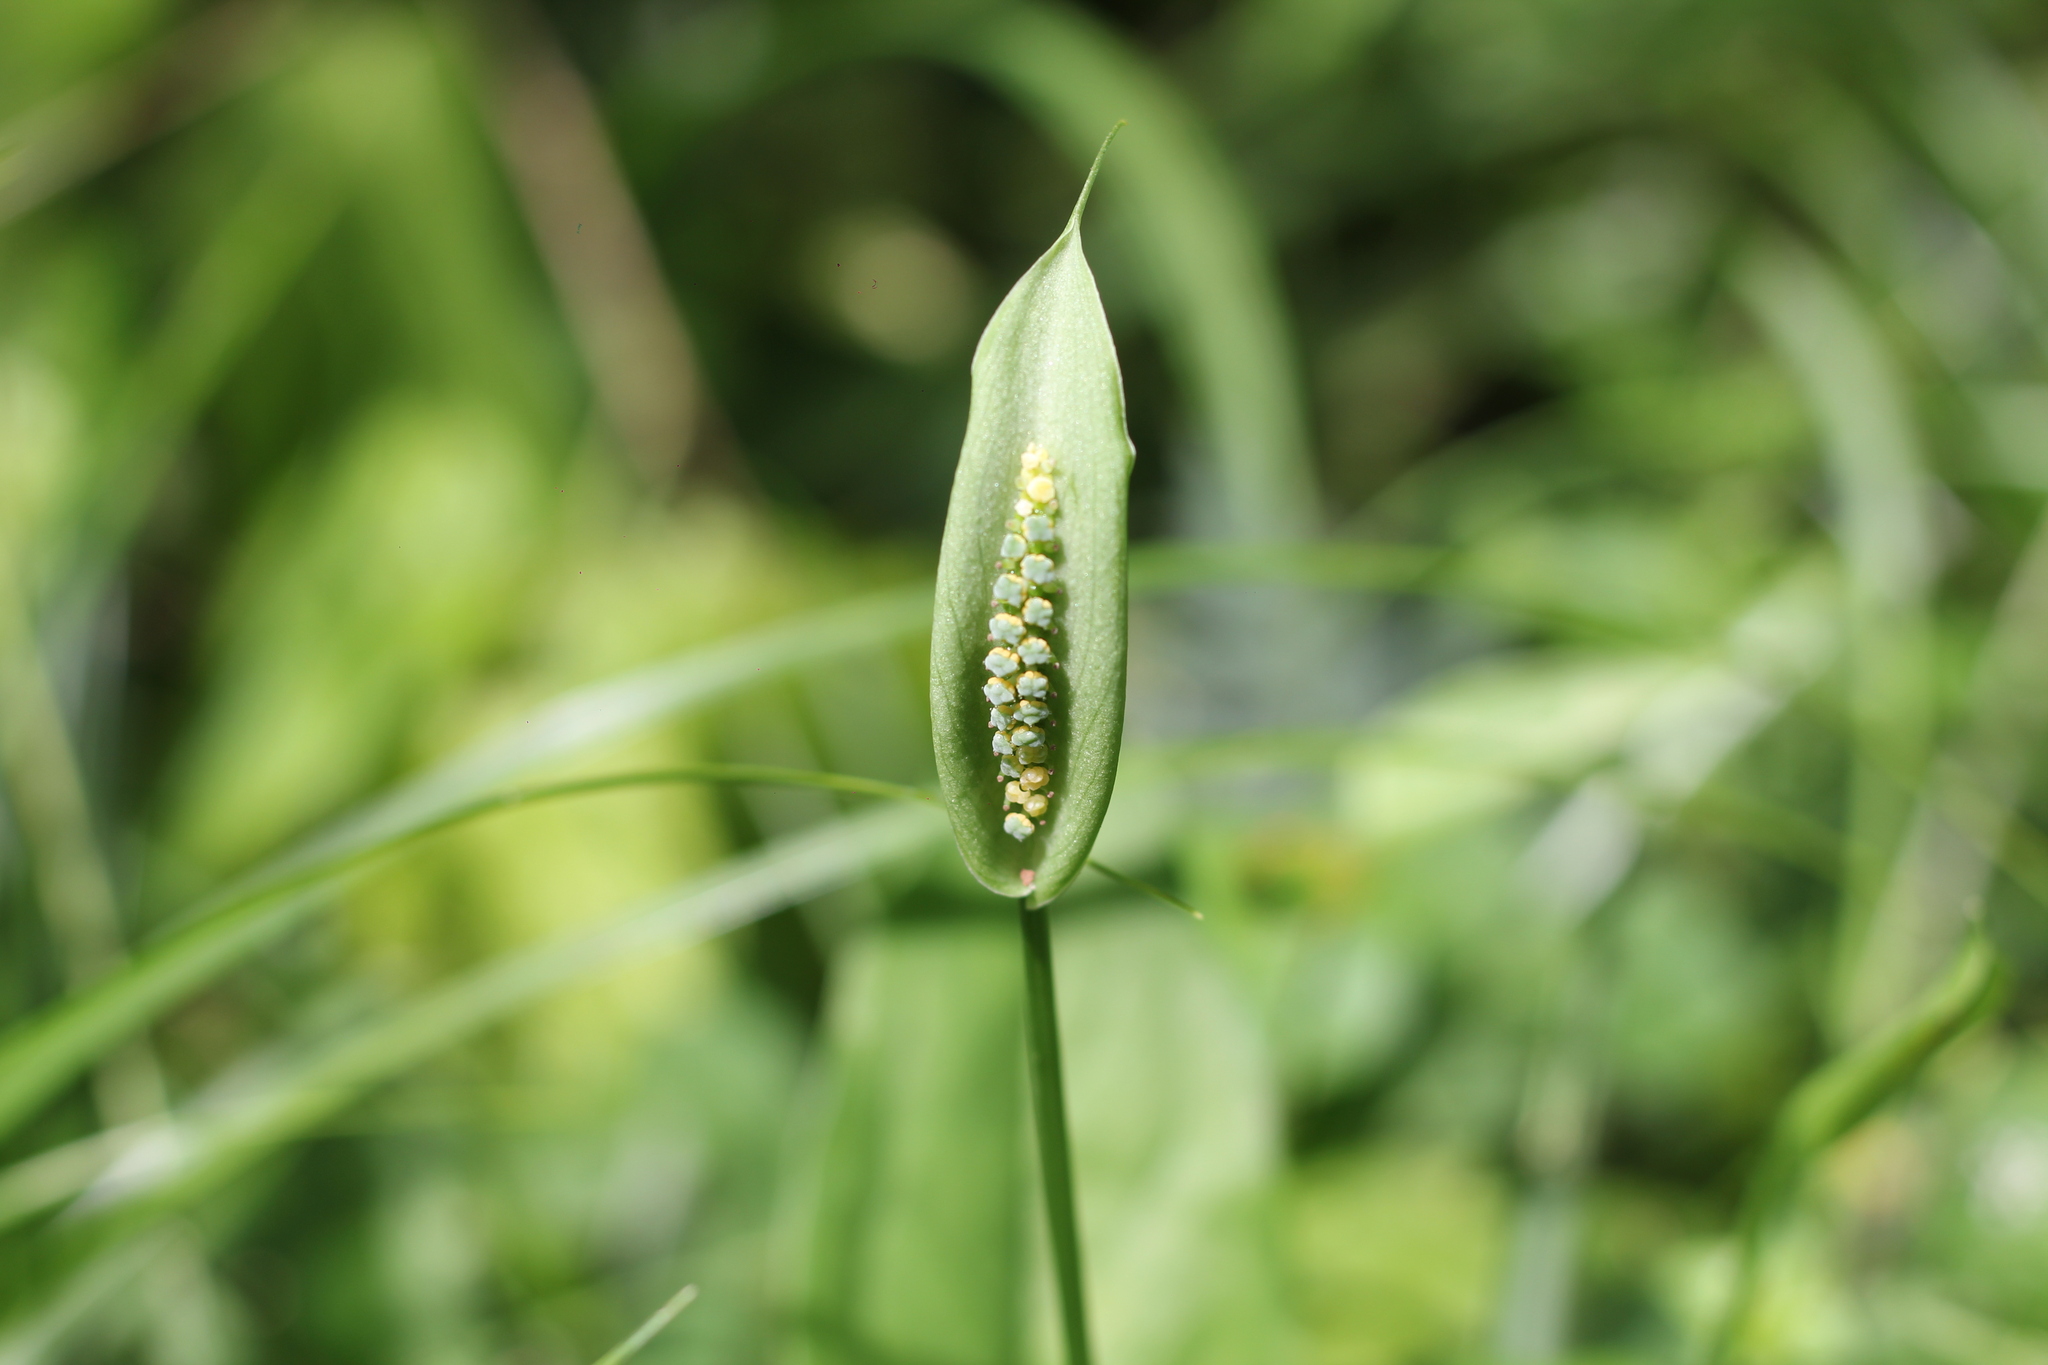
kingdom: Plantae
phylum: Tracheophyta
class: Liliopsida
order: Alismatales
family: Araceae
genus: Spathicarpa
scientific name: Spathicarpa hastifolia
